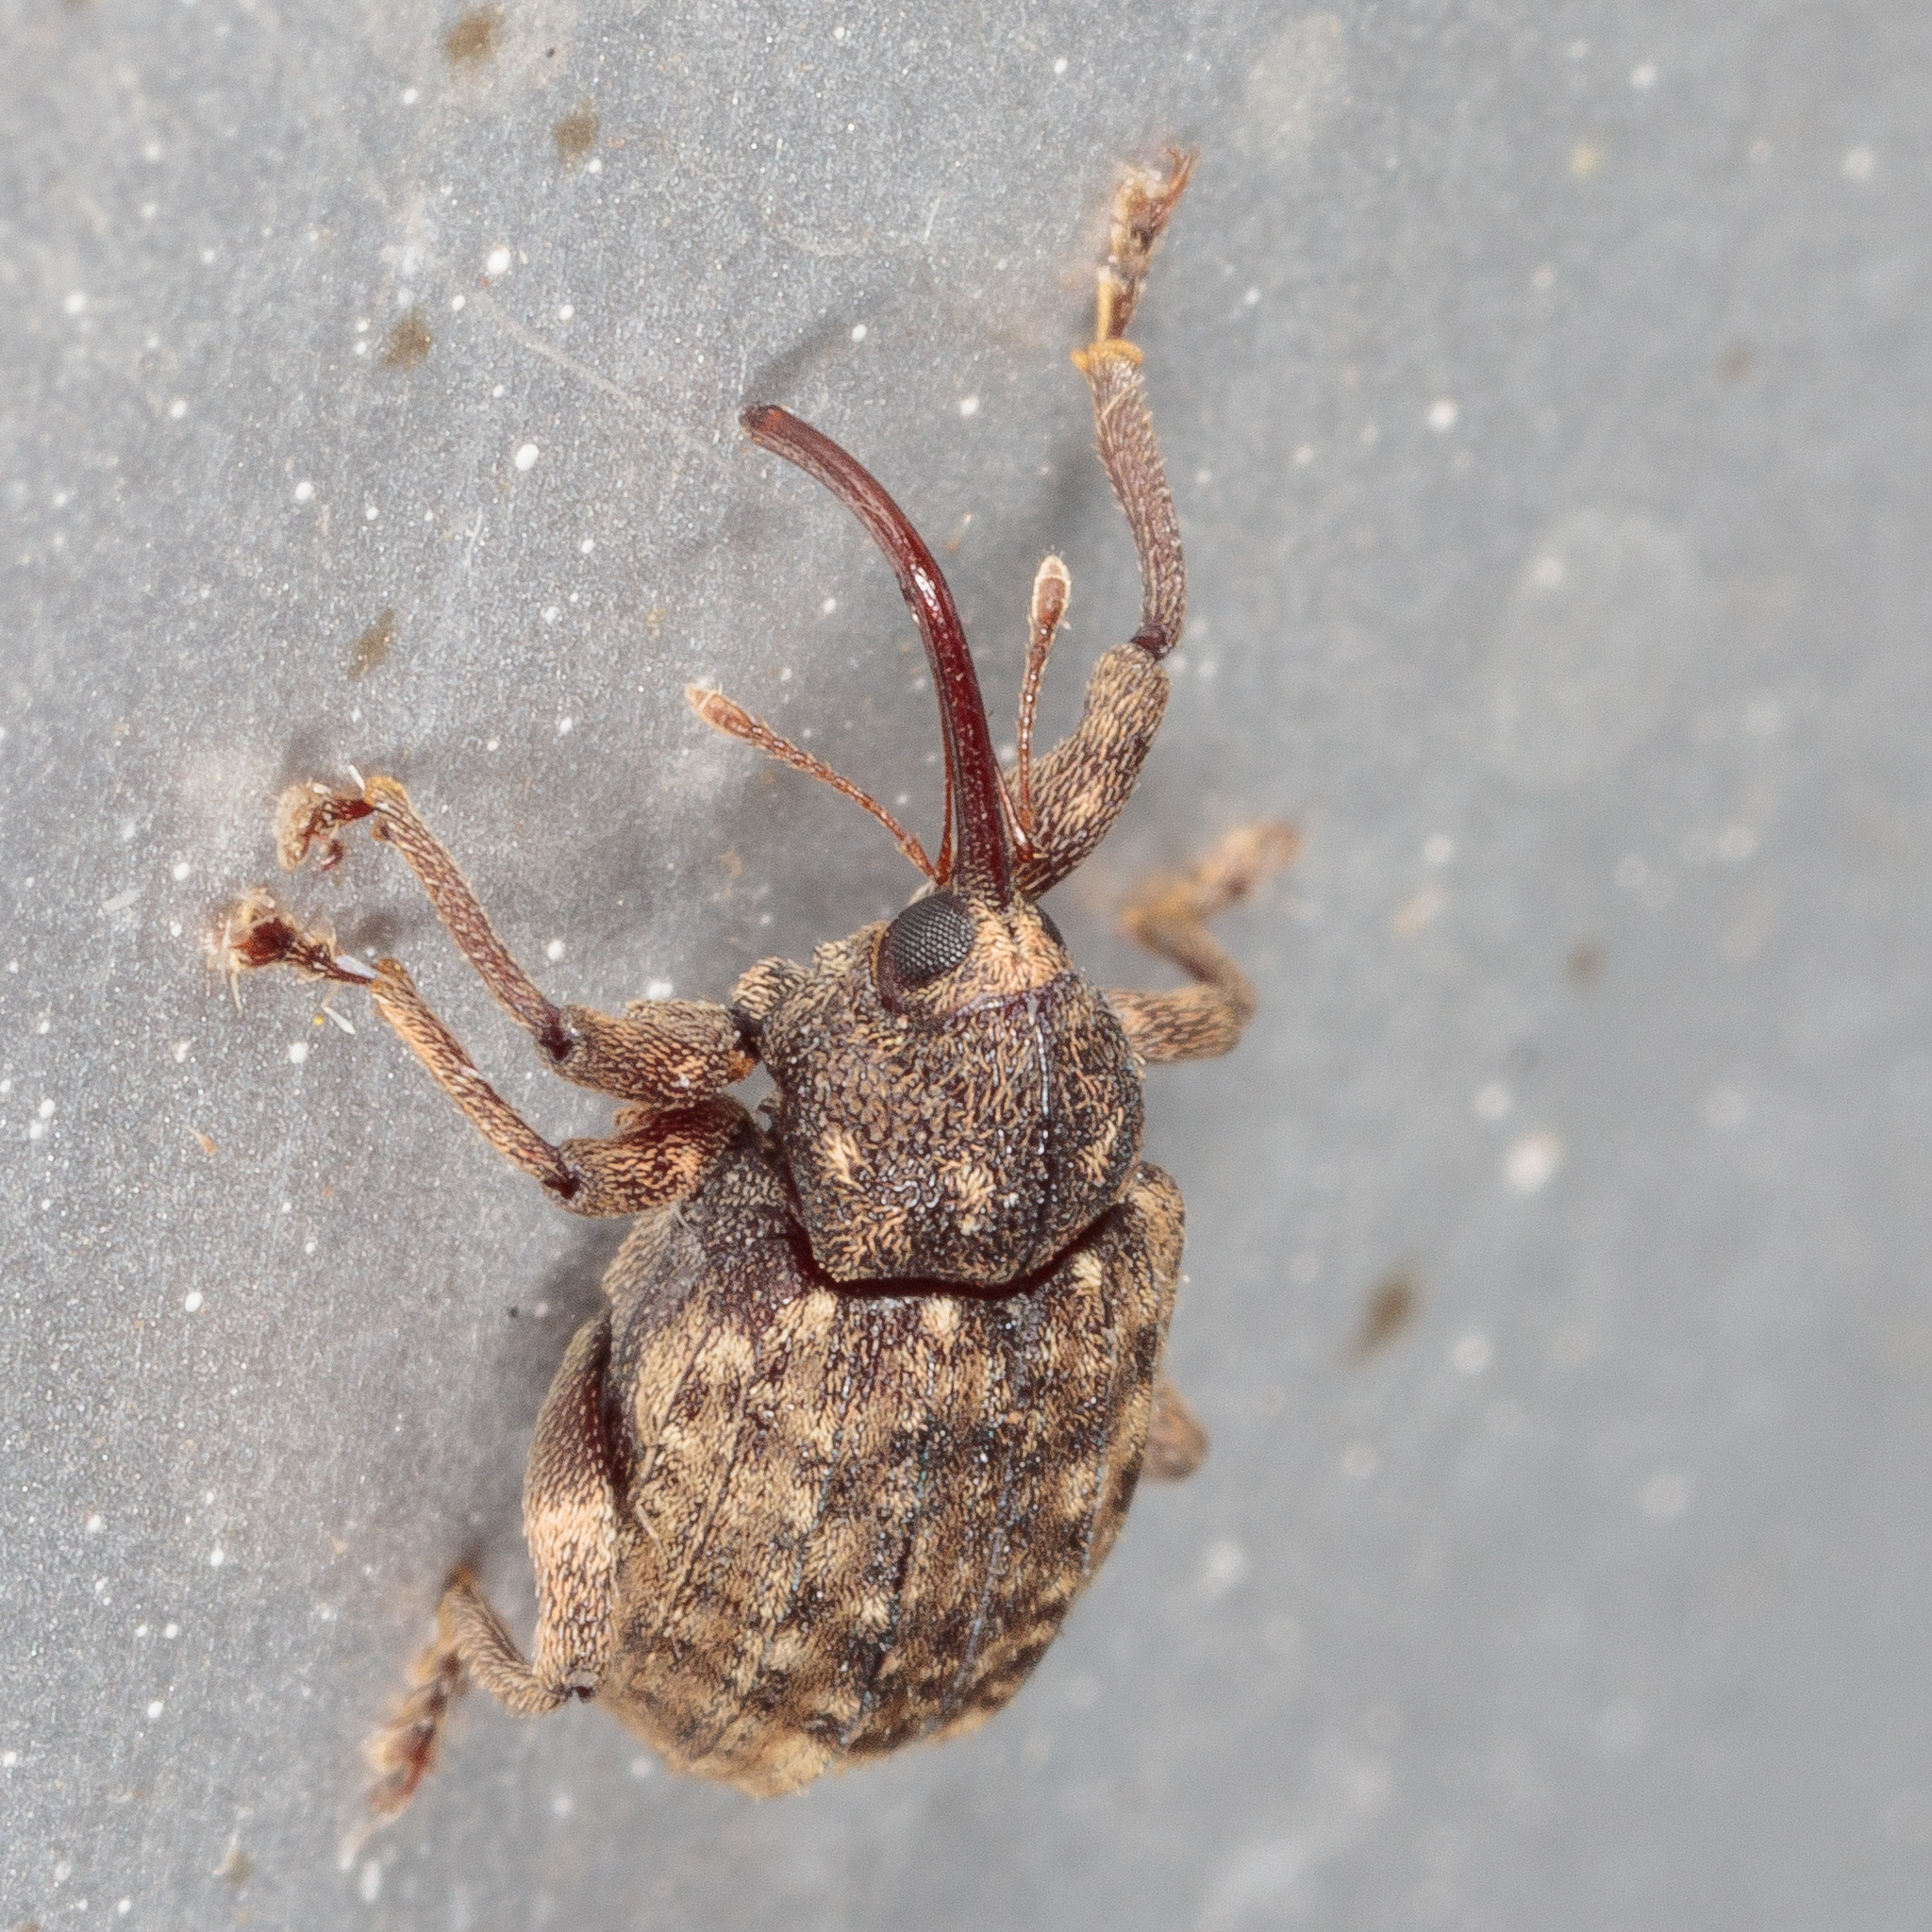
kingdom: Animalia
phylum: Arthropoda
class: Insecta
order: Coleoptera
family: Curculionidae
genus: Conotrachelus
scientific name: Conotrachelus naso
